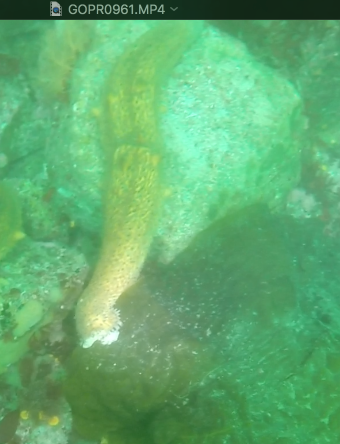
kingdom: Animalia
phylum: Echinodermata
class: Holothuroidea
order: Synallactida
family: Stichopodidae
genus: Apostichopus
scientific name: Apostichopus parvimensis
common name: Warty sea cucumber
